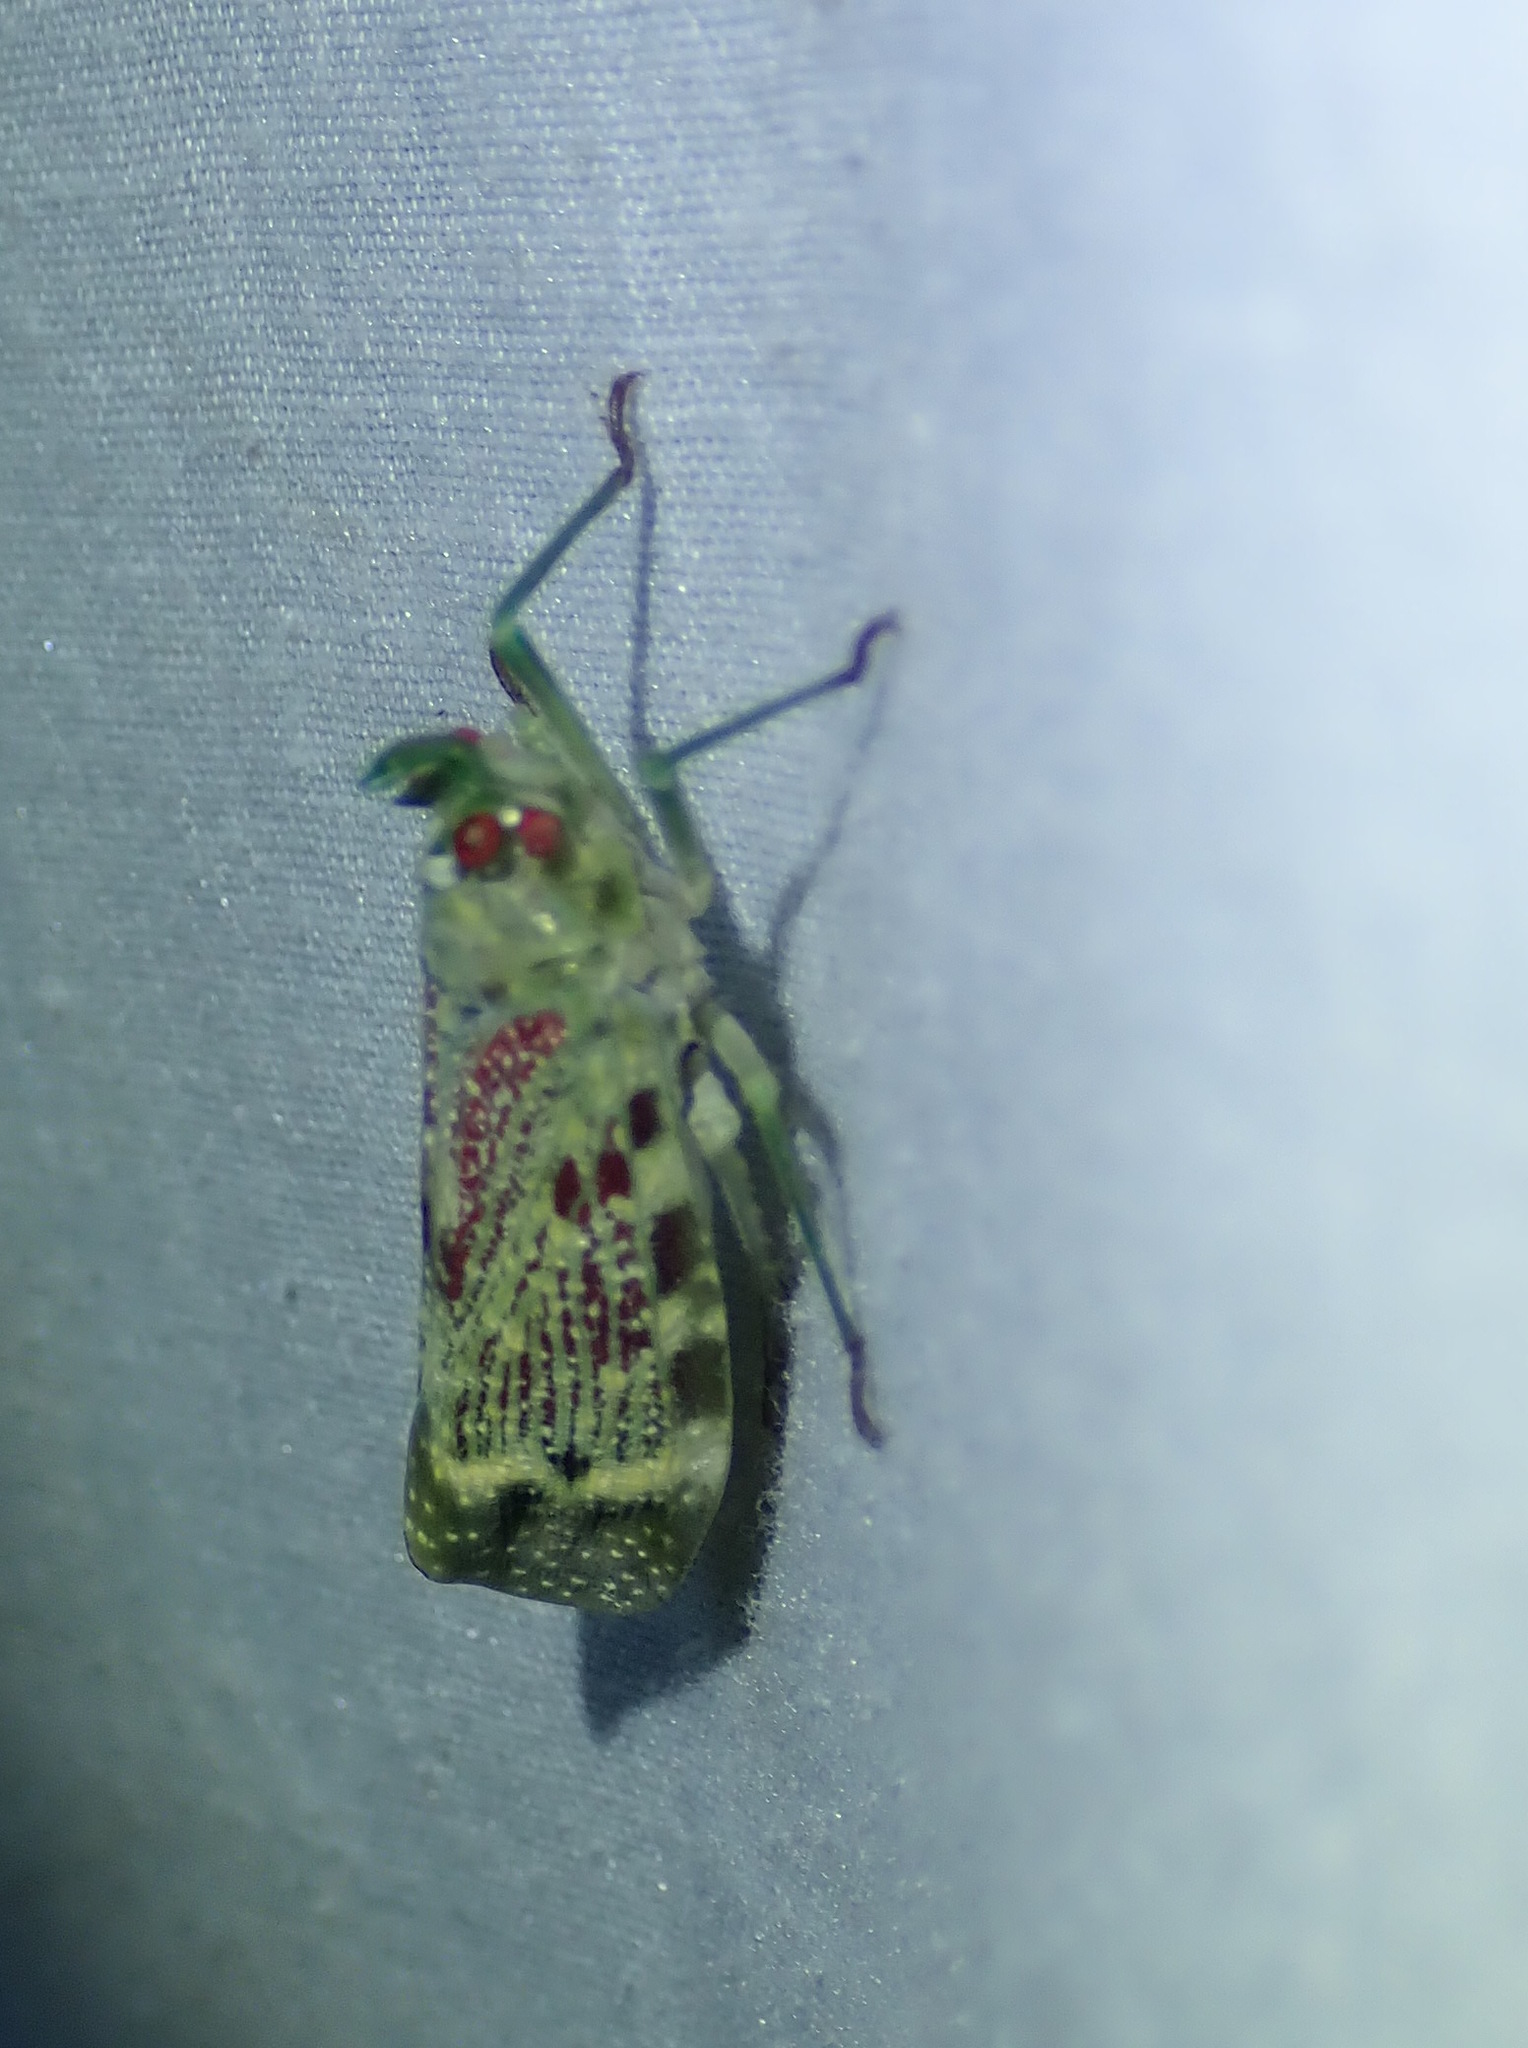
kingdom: Animalia
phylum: Arthropoda
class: Insecta
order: Hemiptera
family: Fulgoridae
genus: Enchophora
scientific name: Enchophora rosacea
